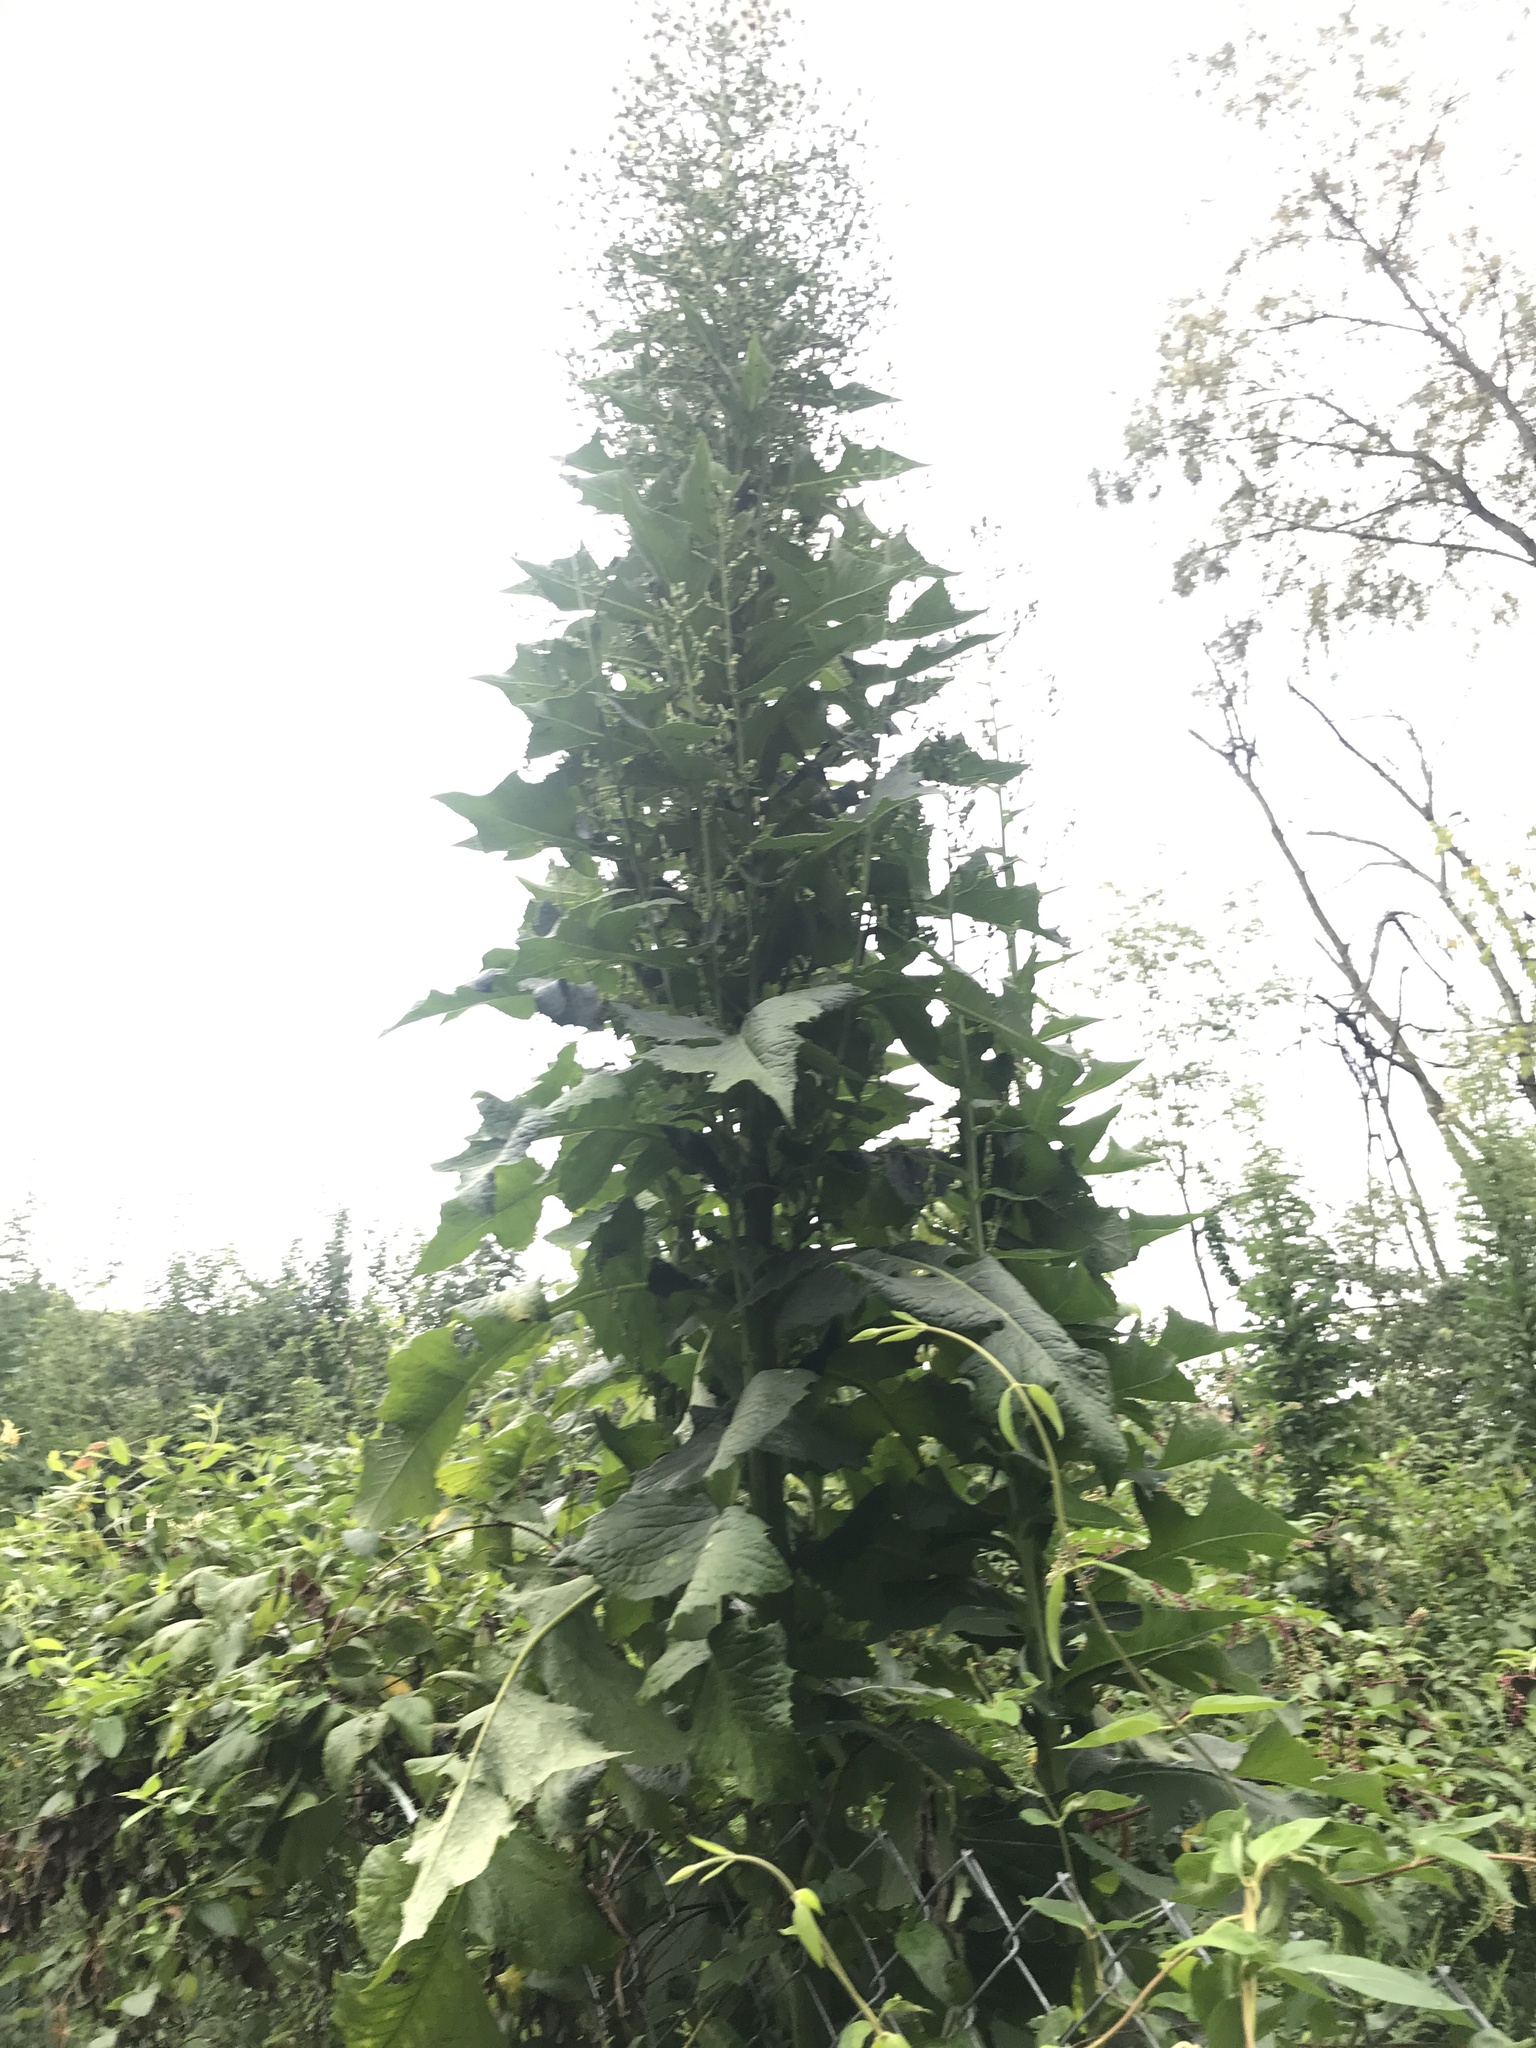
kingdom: Plantae
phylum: Tracheophyta
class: Magnoliopsida
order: Asterales
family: Asteraceae
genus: Lactuca
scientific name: Lactuca biennis
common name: Blue wood lettuce
